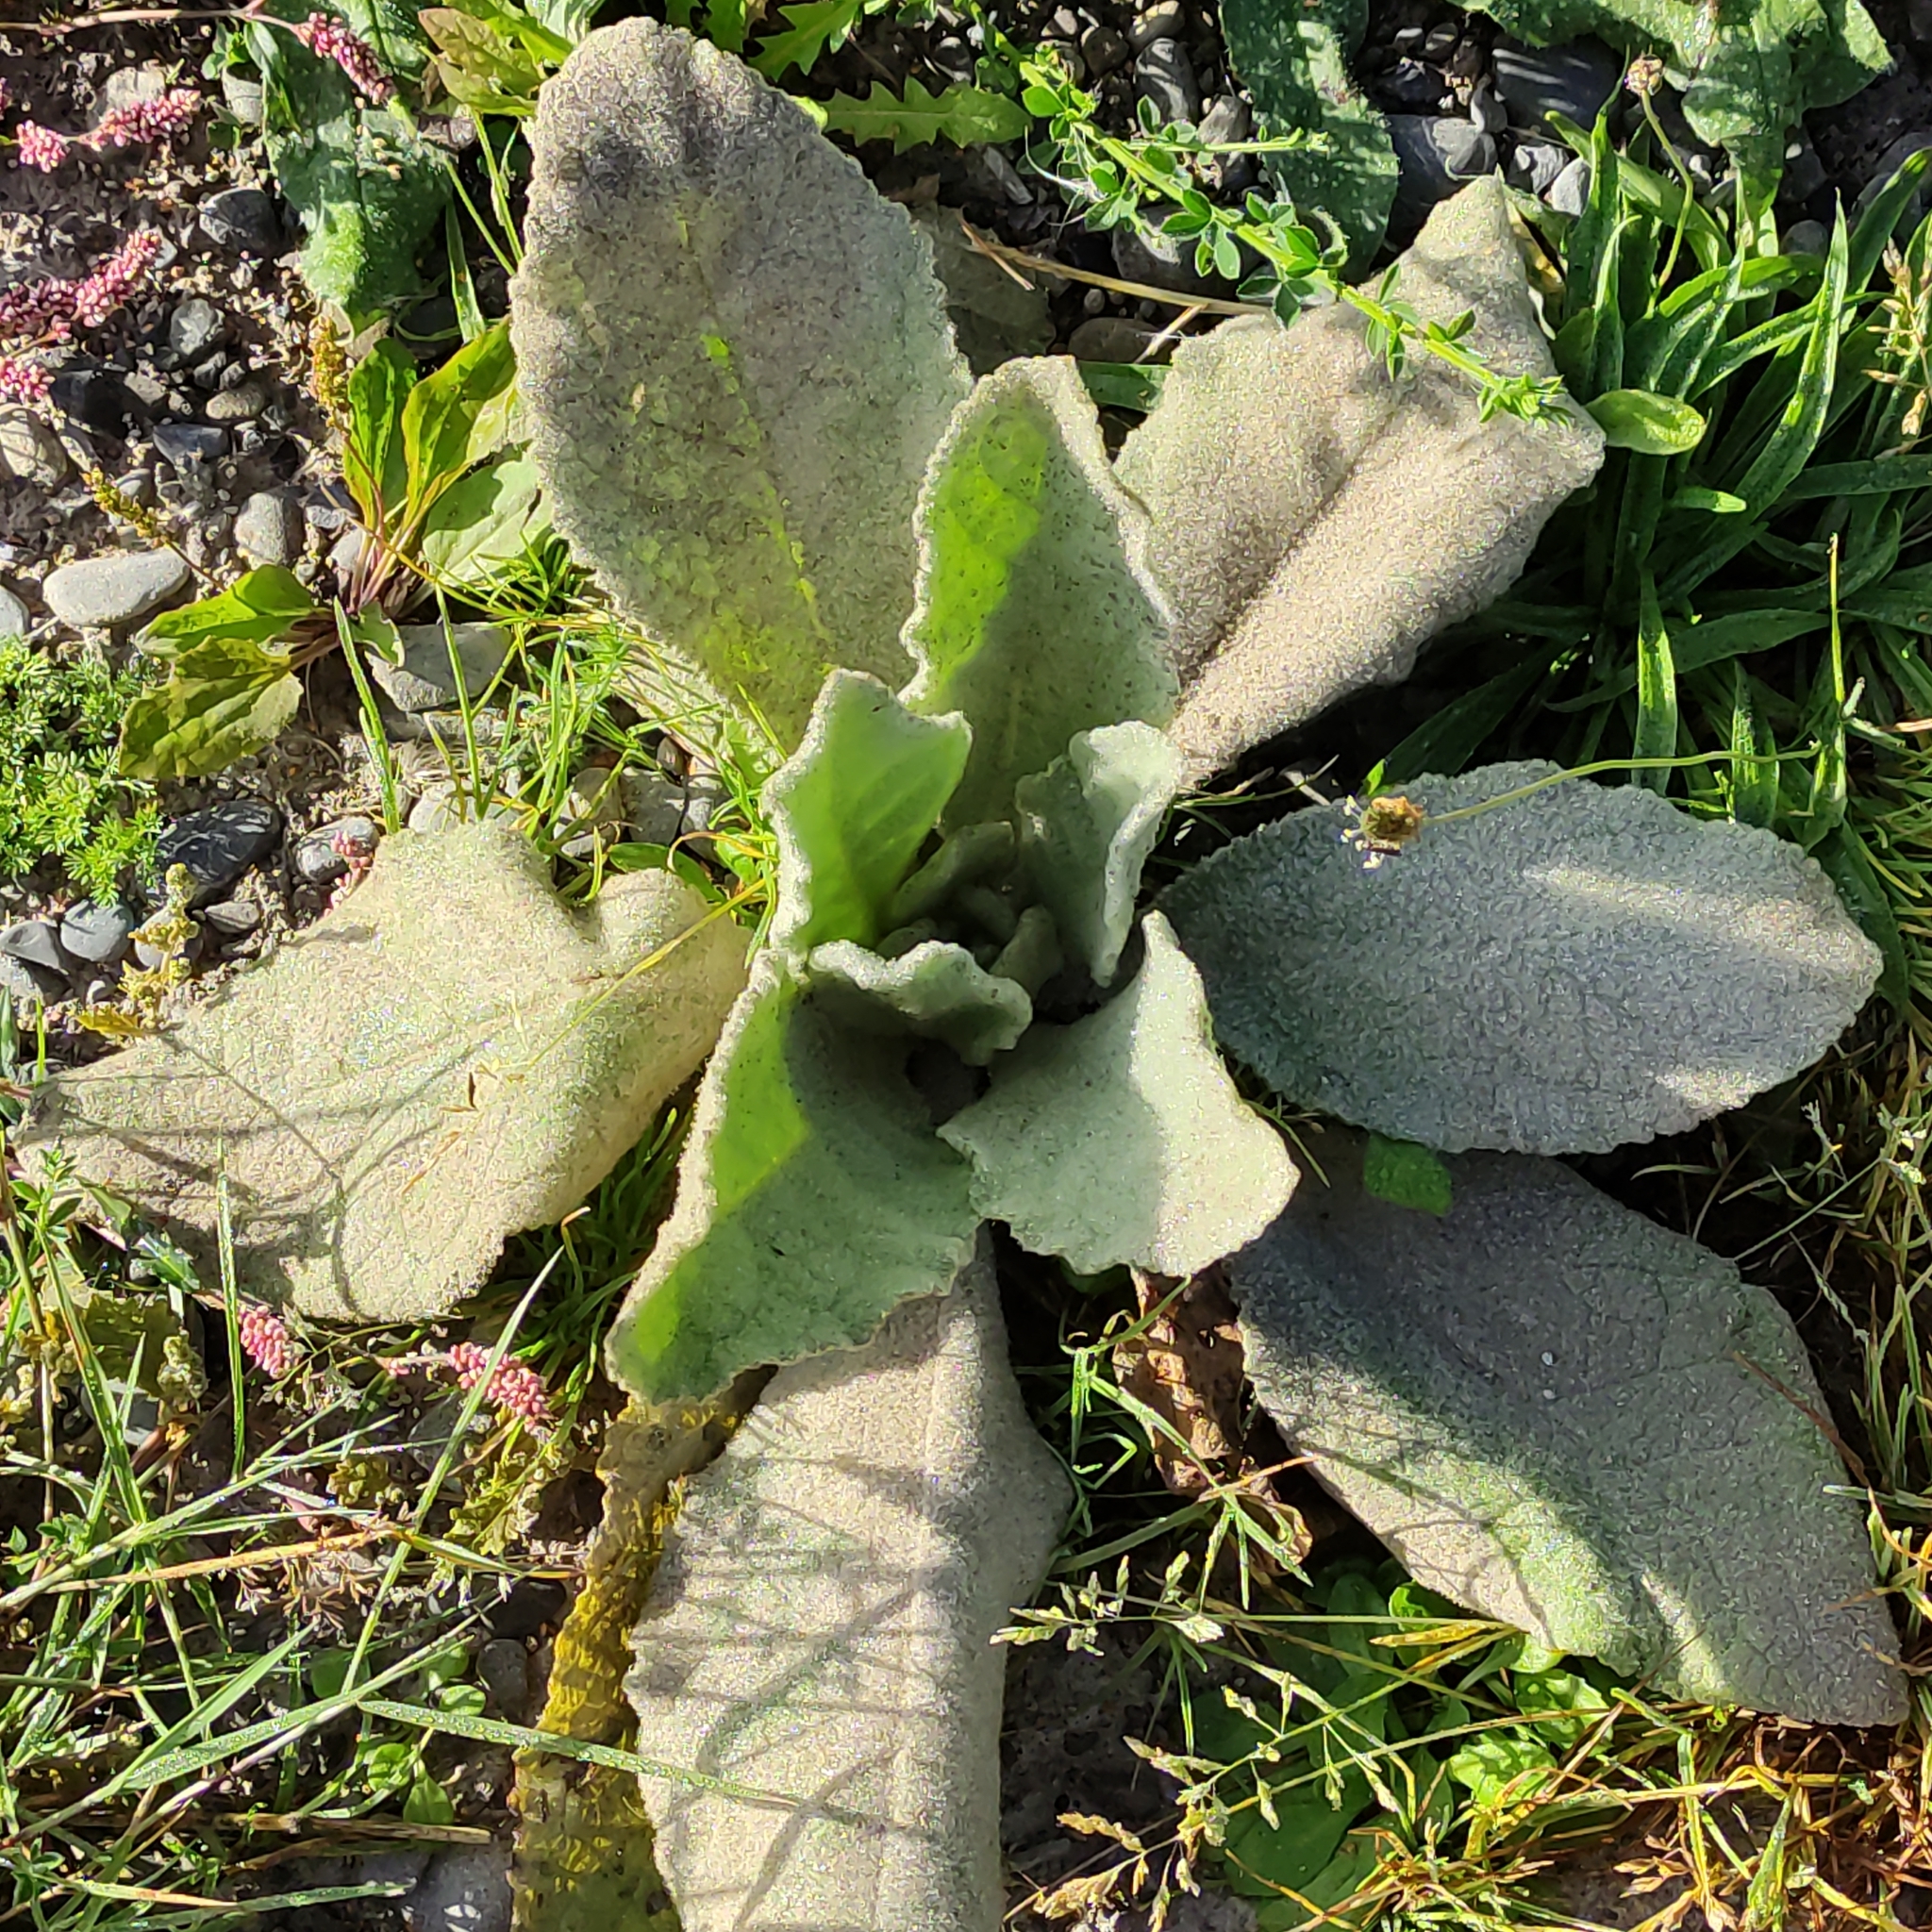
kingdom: Plantae
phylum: Tracheophyta
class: Magnoliopsida
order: Lamiales
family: Scrophulariaceae
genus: Verbascum
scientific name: Verbascum thapsus
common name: Common mullein
